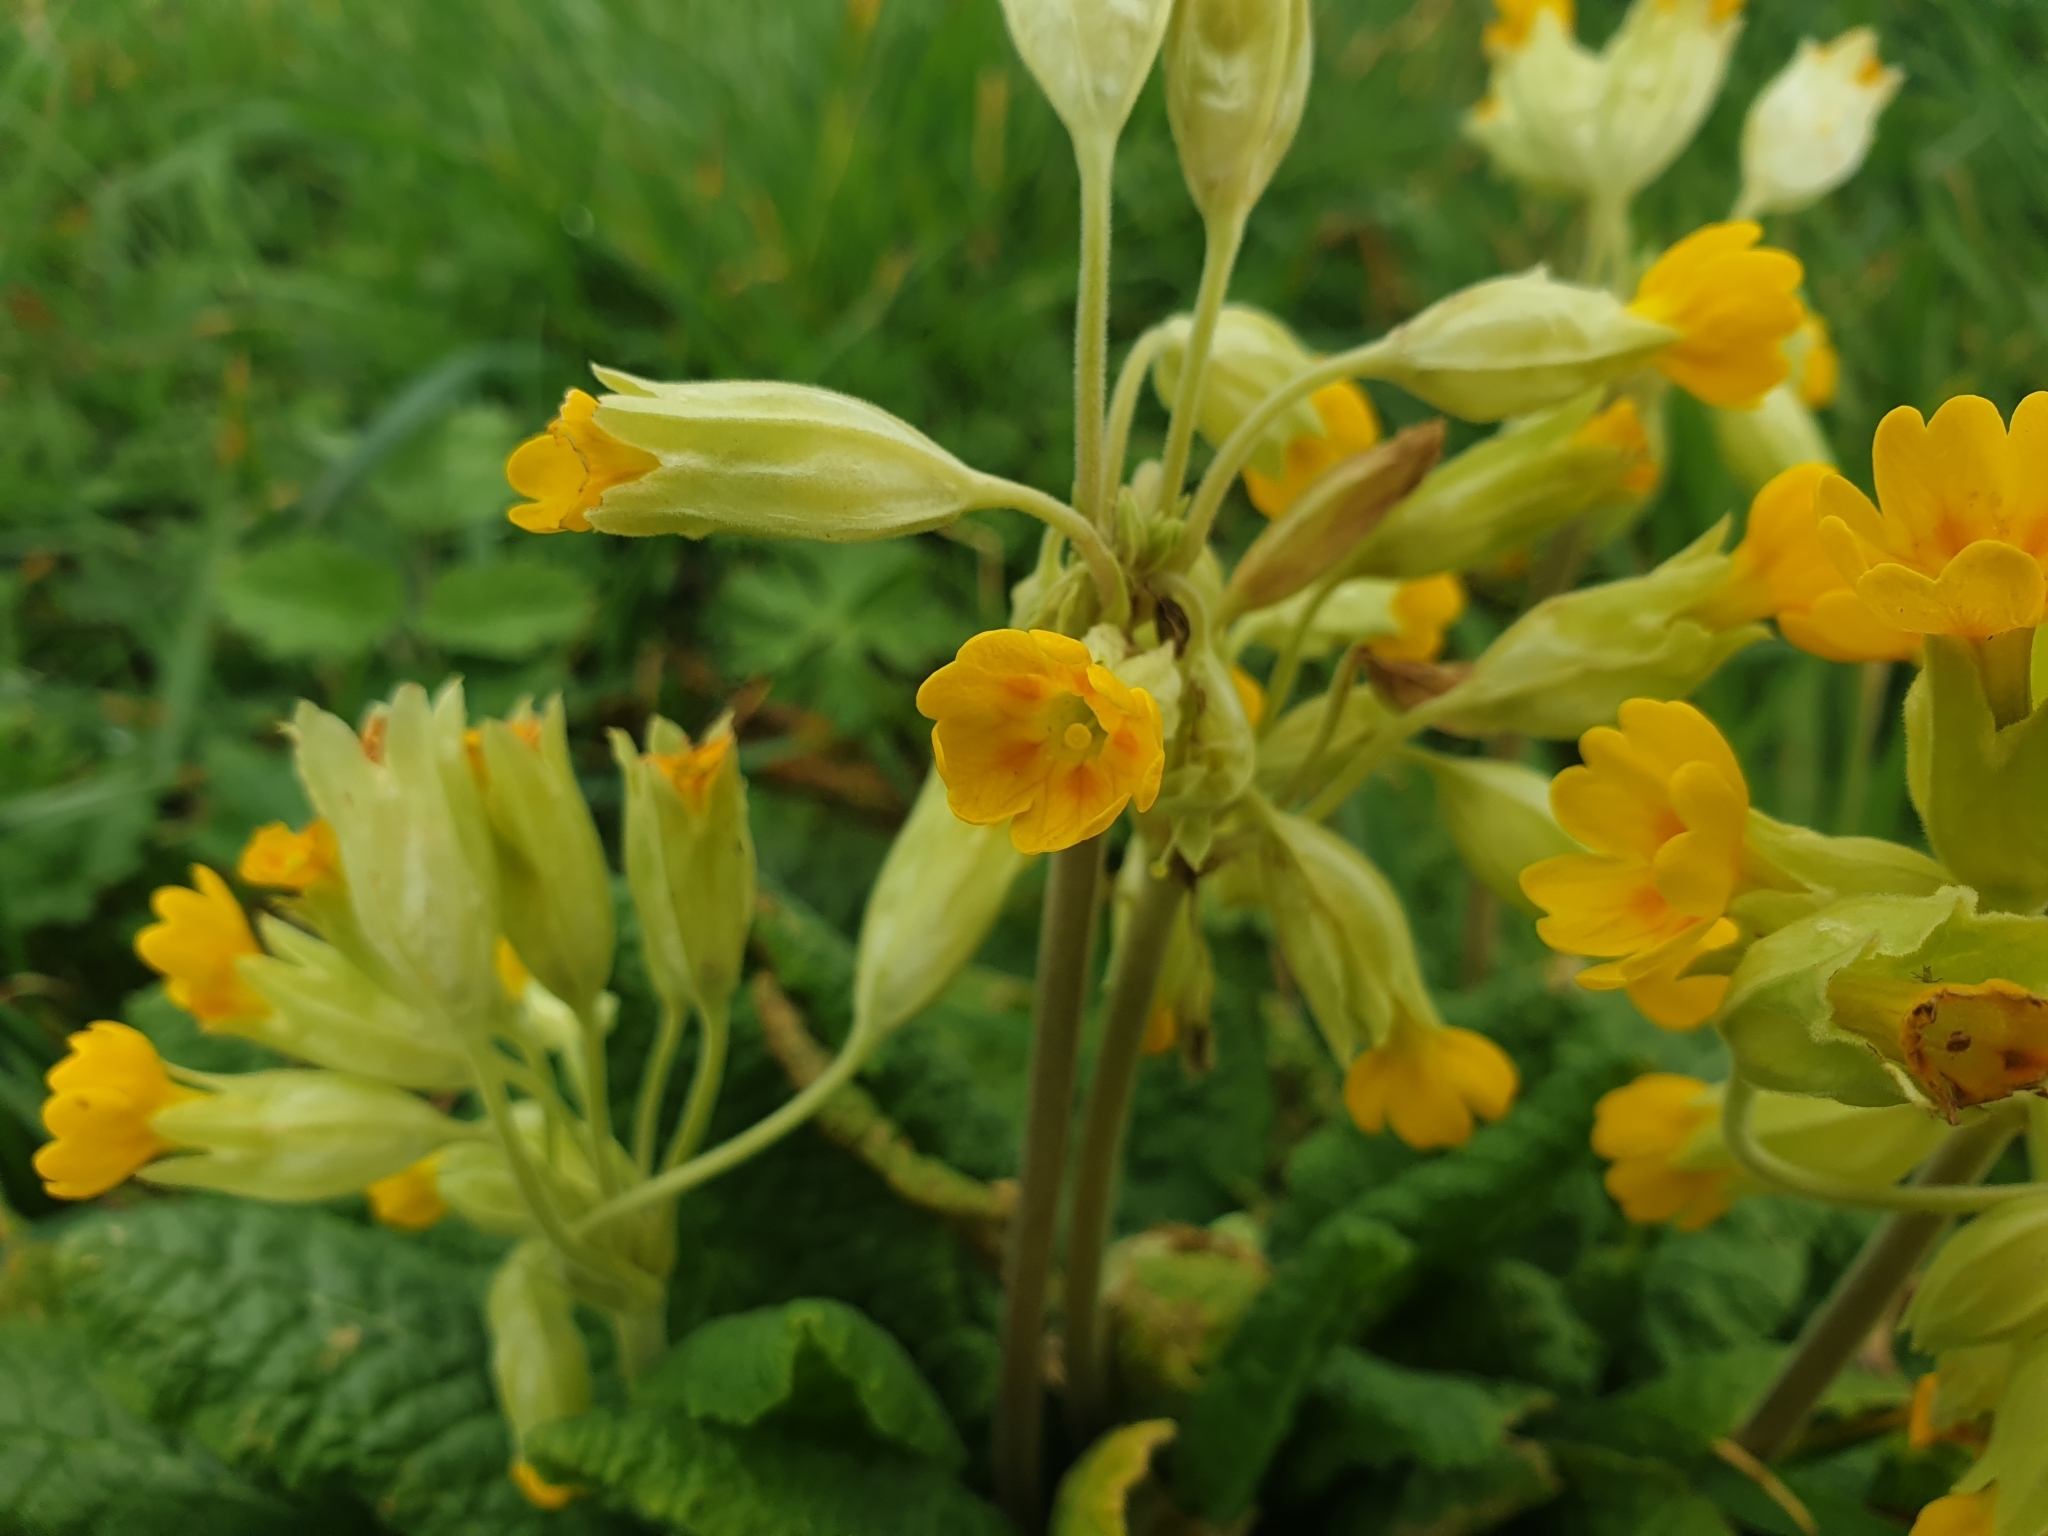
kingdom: Plantae
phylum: Tracheophyta
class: Magnoliopsida
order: Ericales
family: Primulaceae
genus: Primula
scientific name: Primula veris
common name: Cowslip
